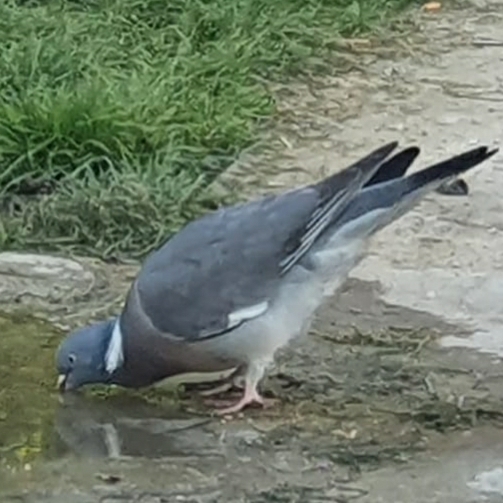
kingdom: Animalia
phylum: Chordata
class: Aves
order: Columbiformes
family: Columbidae
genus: Columba
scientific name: Columba palumbus
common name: Common wood pigeon
